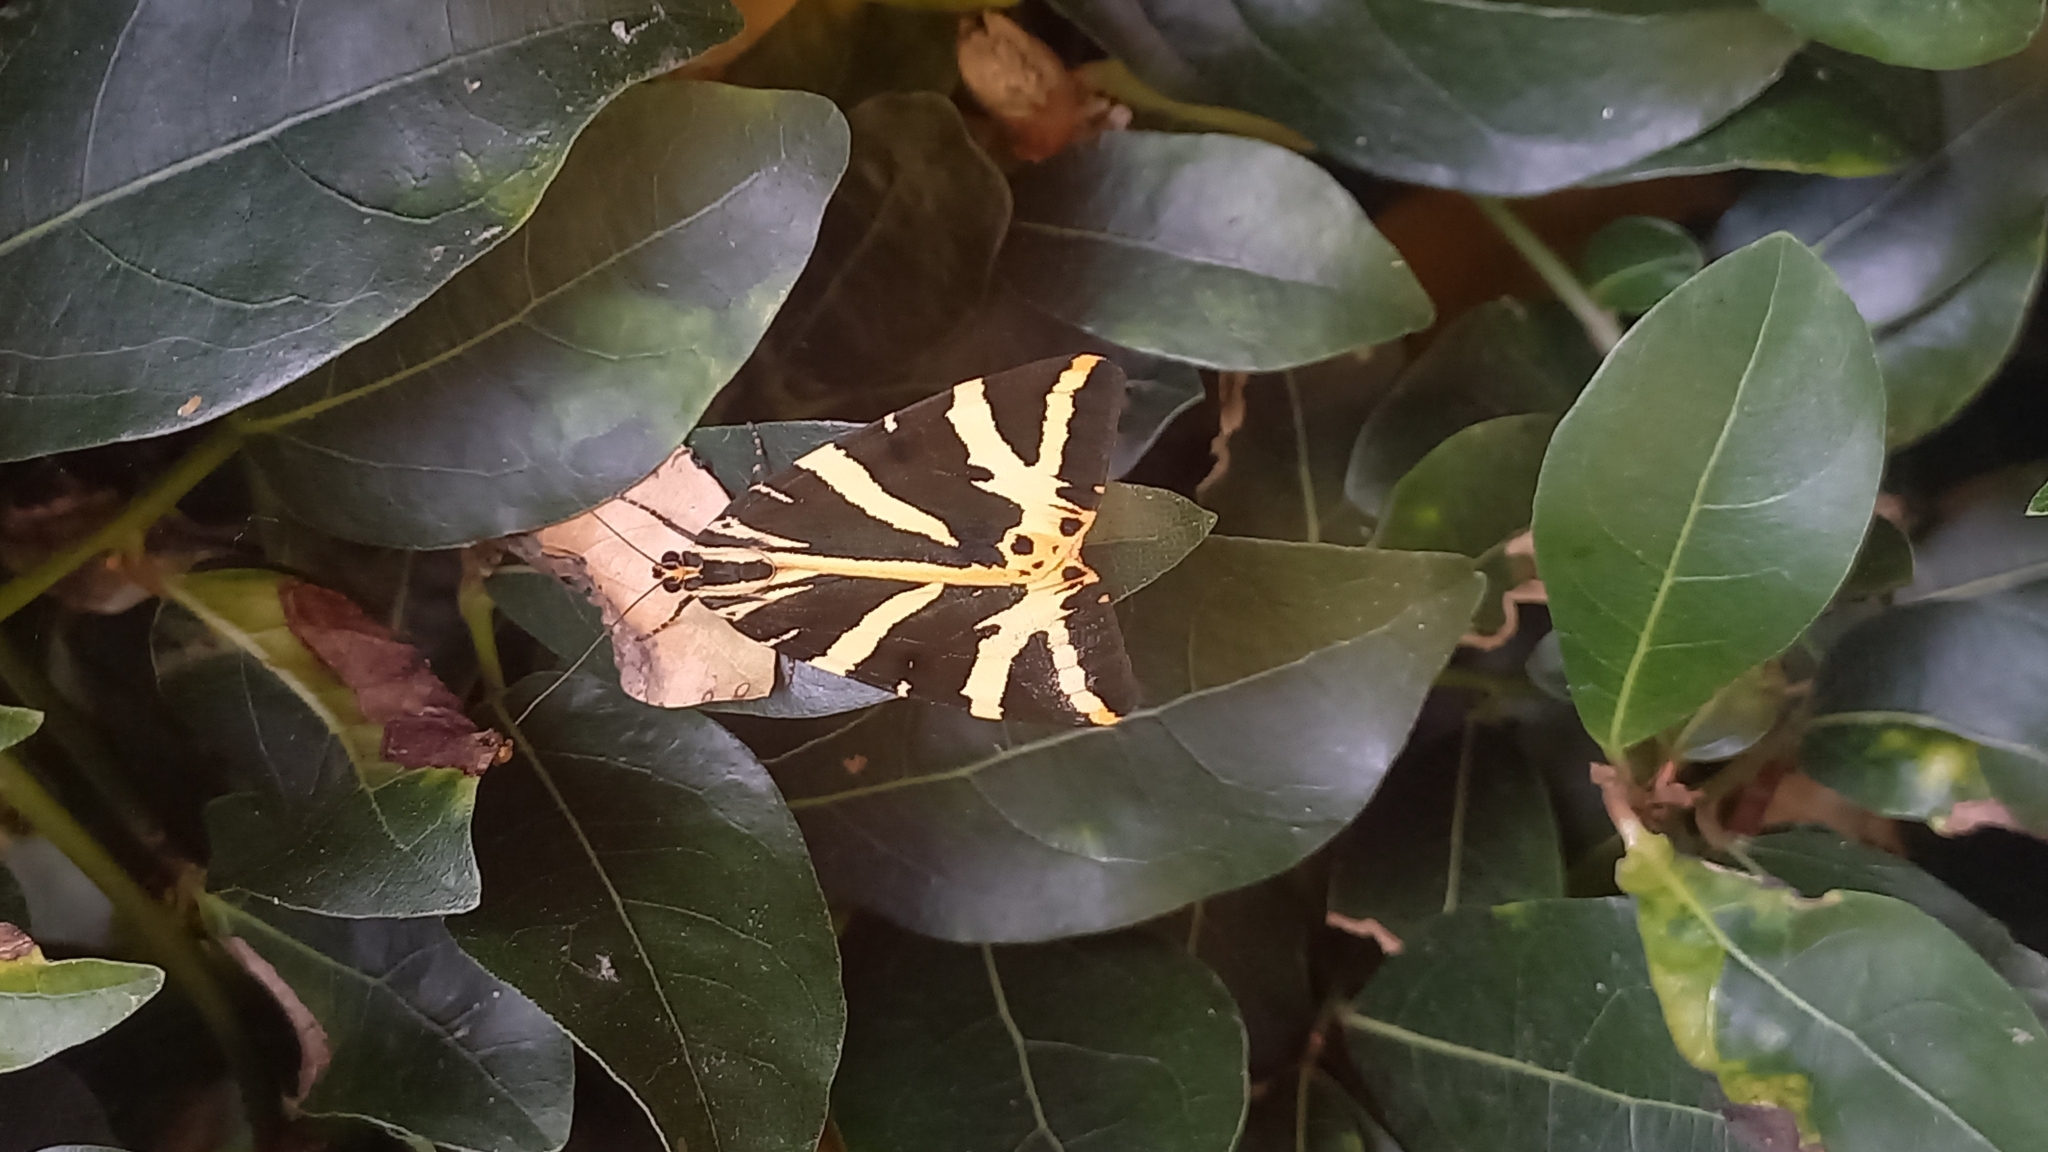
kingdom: Animalia
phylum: Arthropoda
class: Insecta
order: Lepidoptera
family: Erebidae
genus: Euplagia
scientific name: Euplagia quadripunctaria
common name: Jersey tiger
